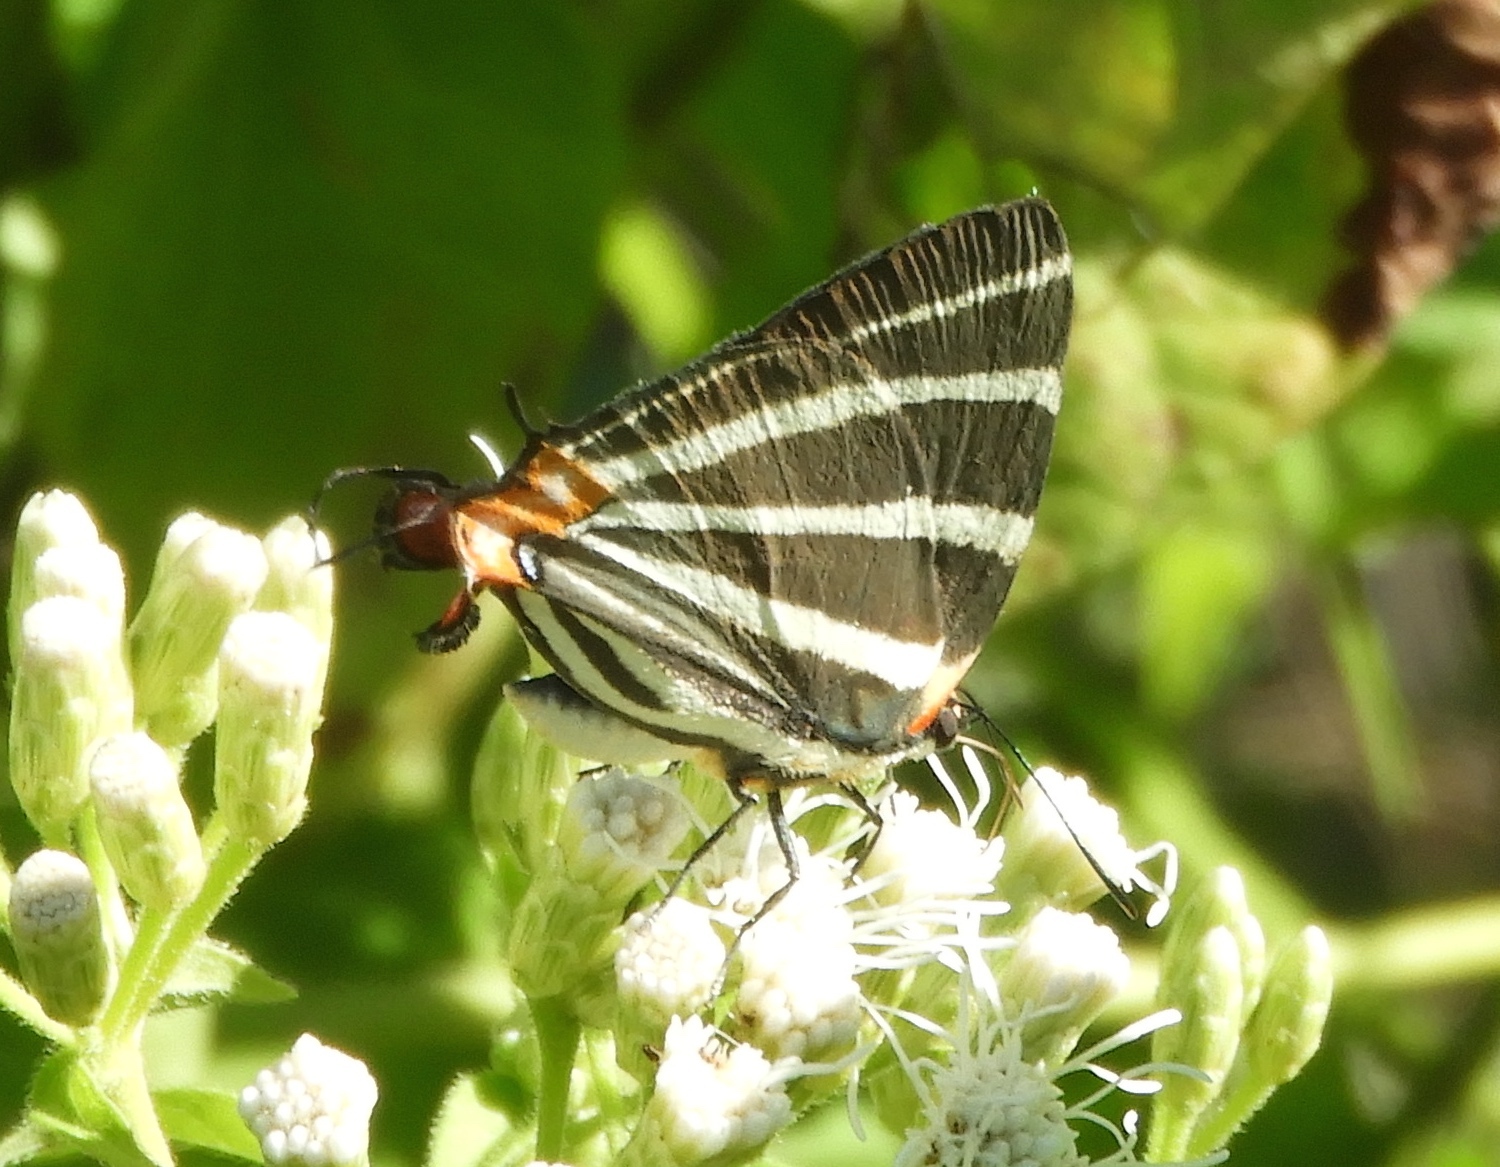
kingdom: Animalia
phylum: Arthropoda
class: Insecta
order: Lepidoptera
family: Lycaenidae
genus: Thecla
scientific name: Thecla bathildis
